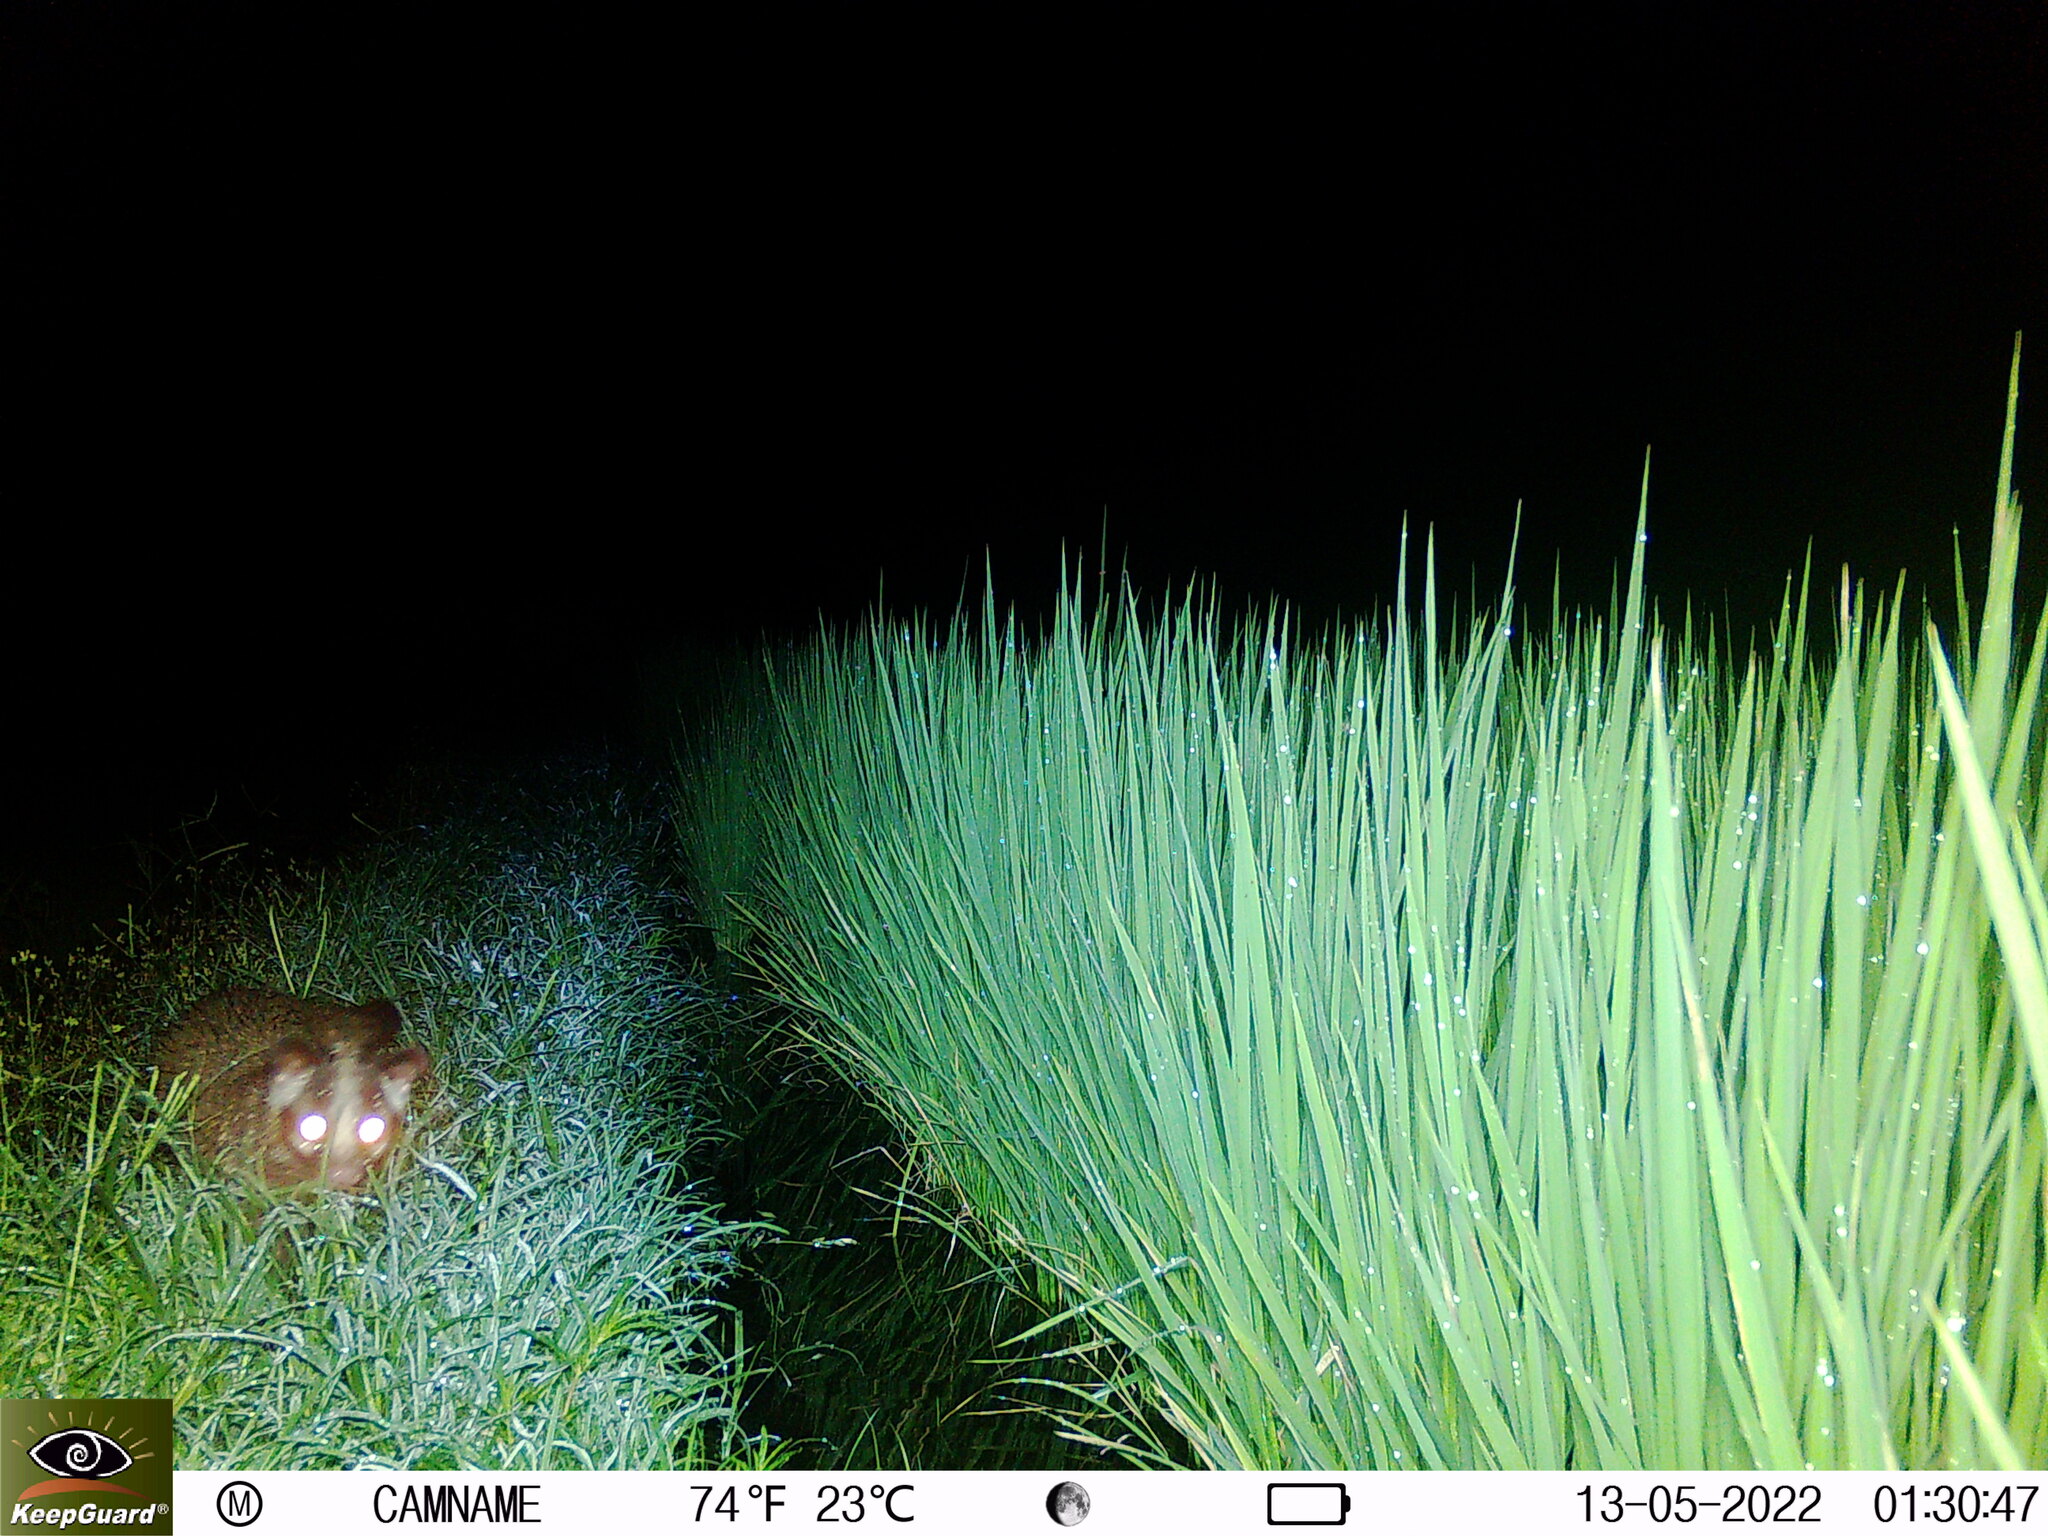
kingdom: Animalia
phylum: Chordata
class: Mammalia
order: Carnivora
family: Viverridae
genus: Paguma
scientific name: Paguma larvata
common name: Masked palm civet
